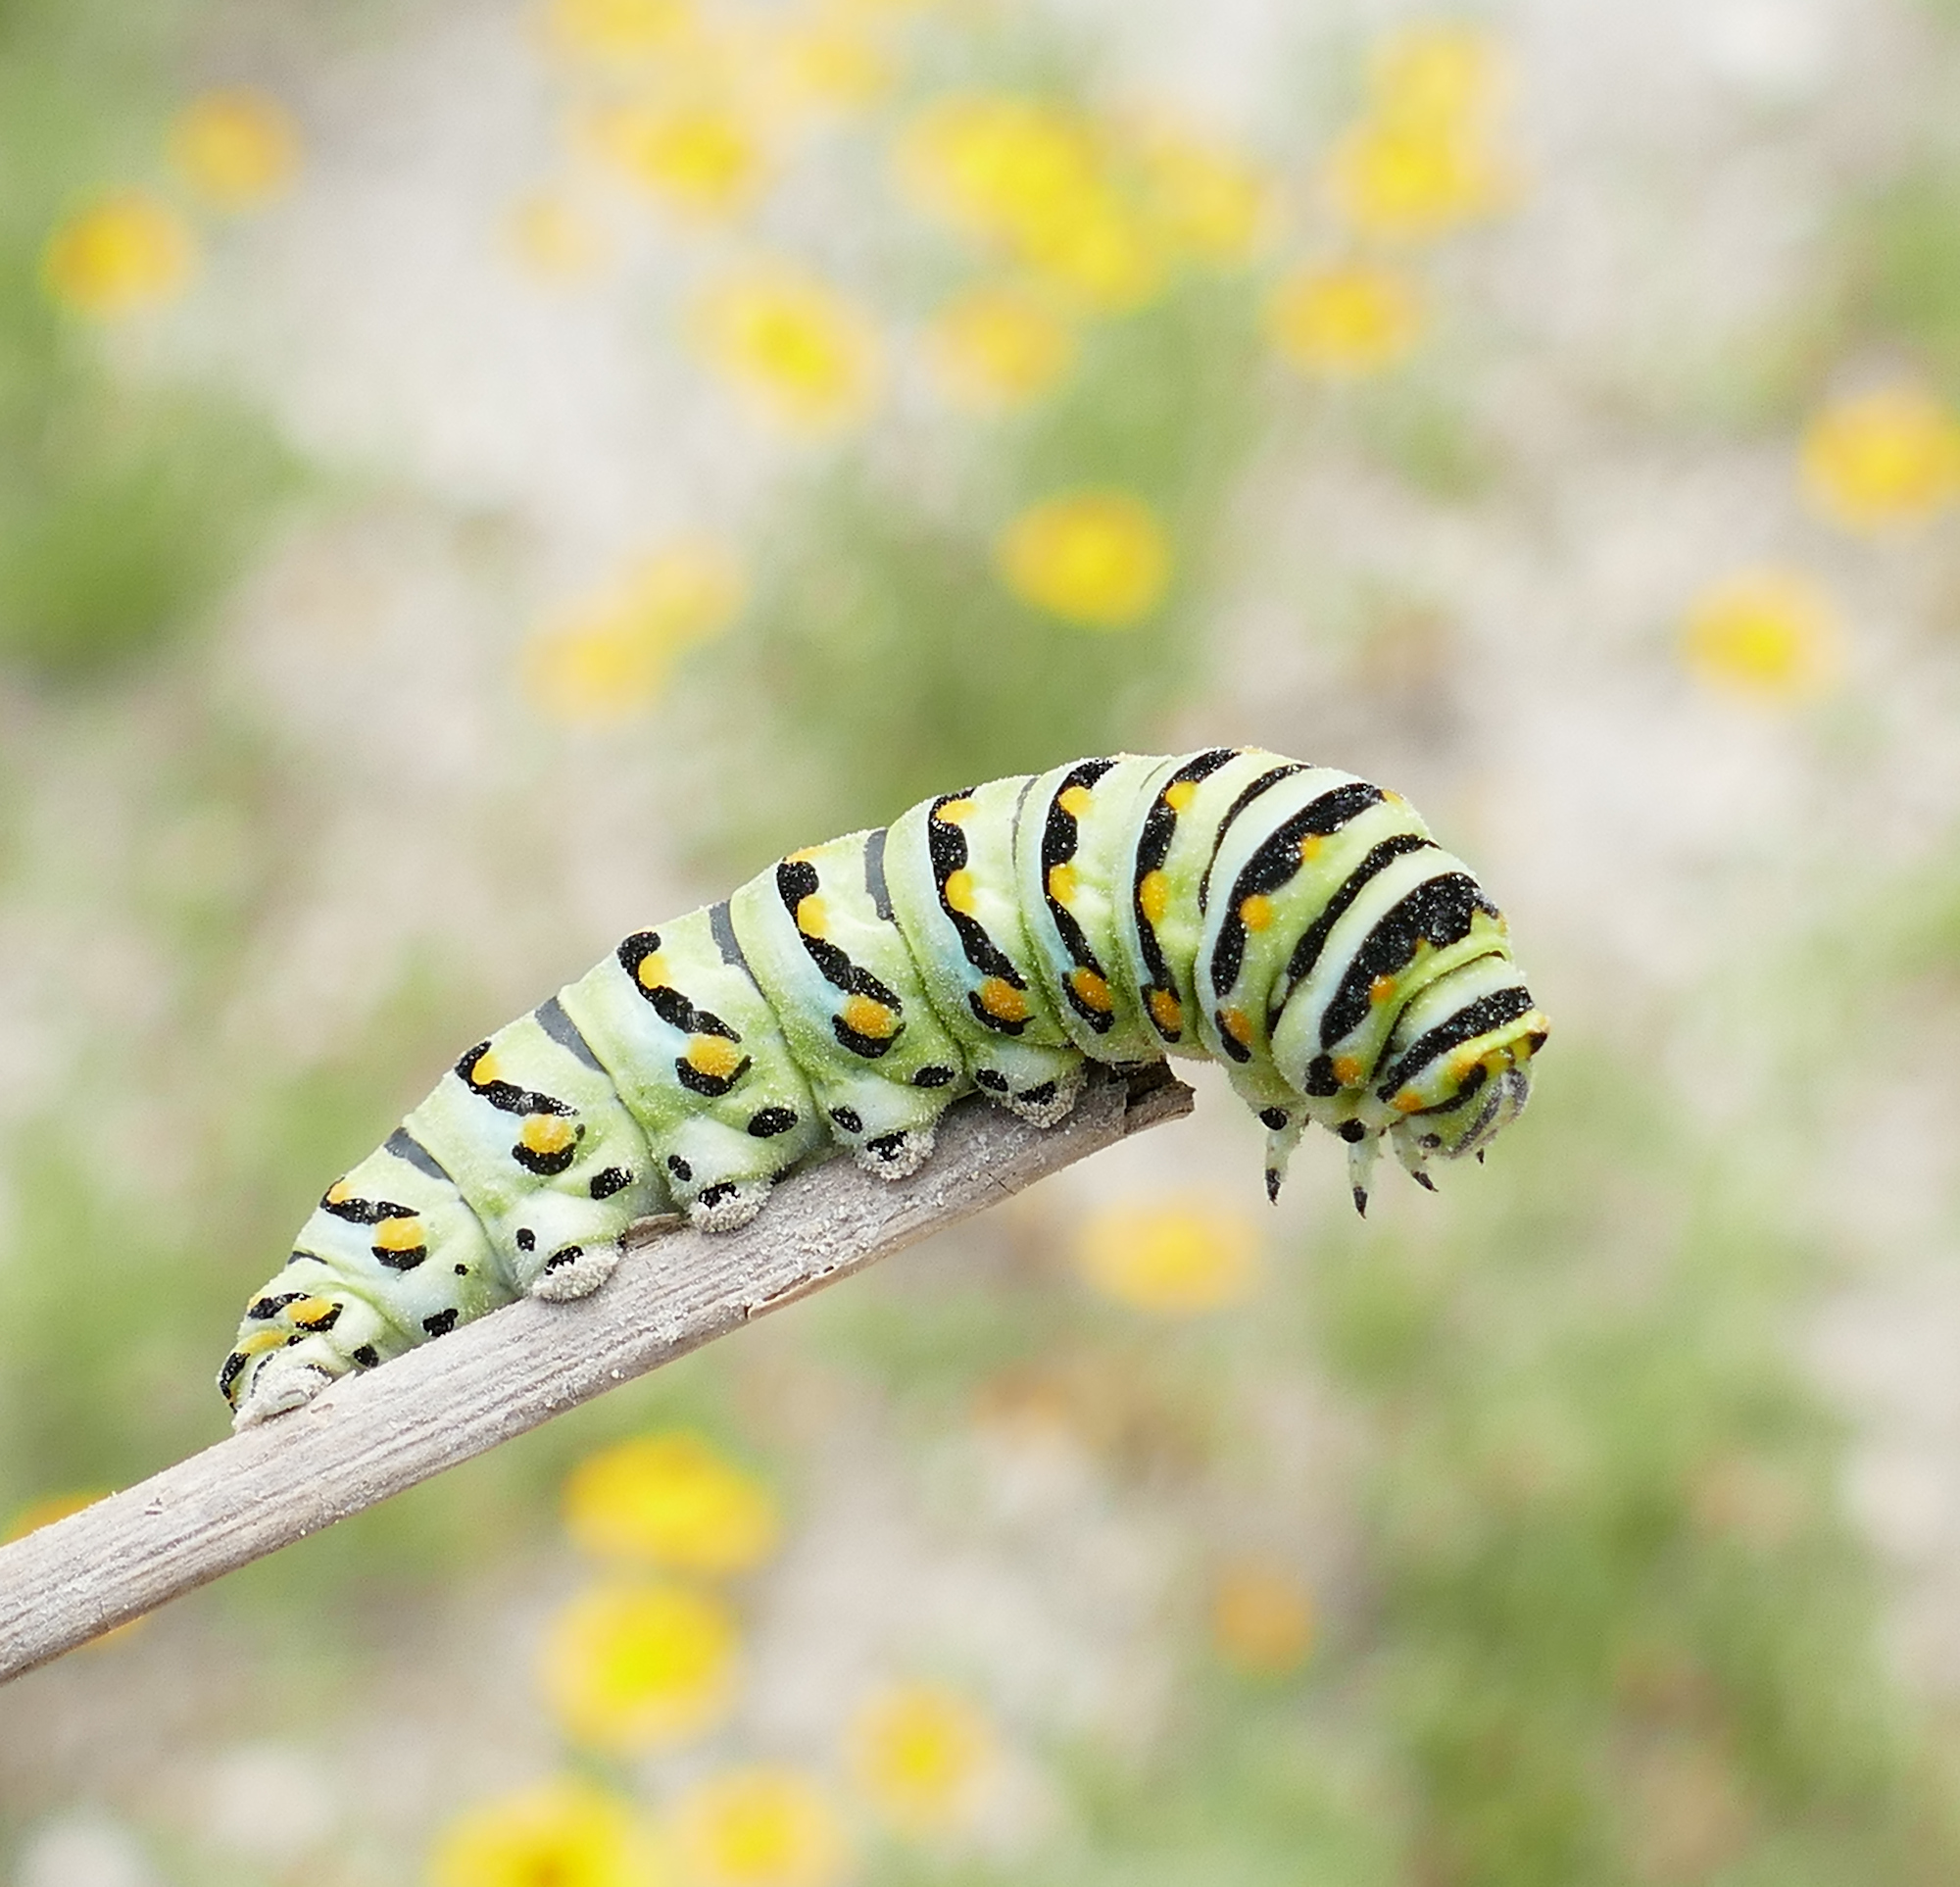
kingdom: Animalia
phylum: Arthropoda
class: Insecta
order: Lepidoptera
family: Papilionidae
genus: Papilio
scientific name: Papilio polyxenes
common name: Black swallowtail
